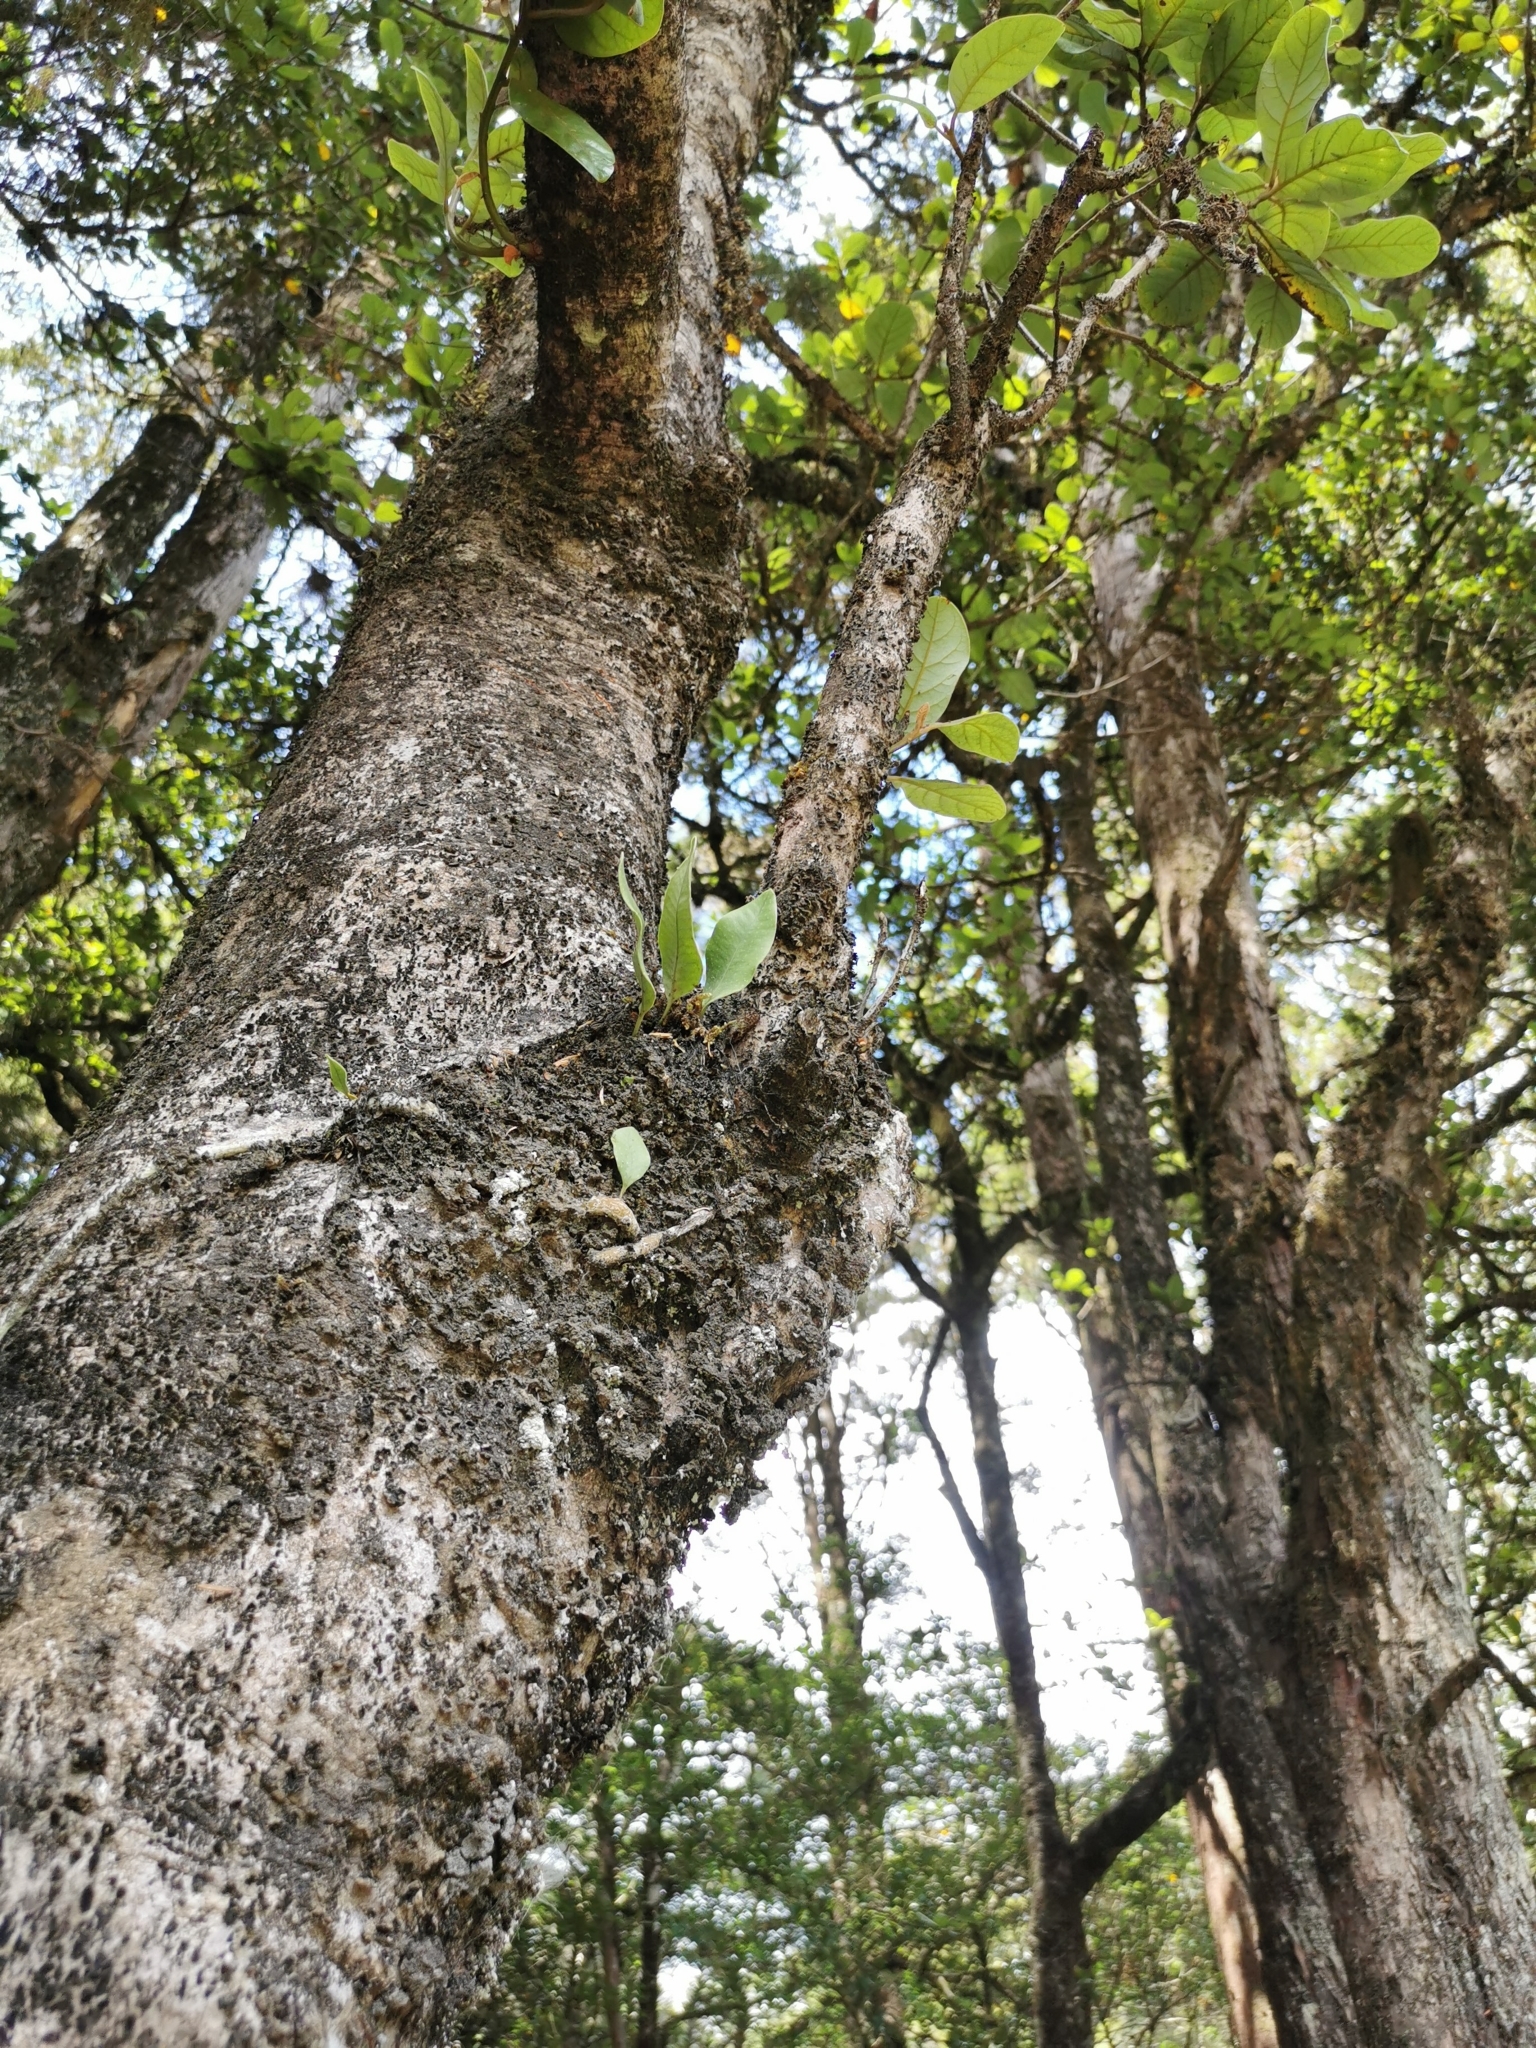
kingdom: Plantae
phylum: Tracheophyta
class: Magnoliopsida
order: Laurales
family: Lauraceae
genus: Beilschmiedia
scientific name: Beilschmiedia tarairi
